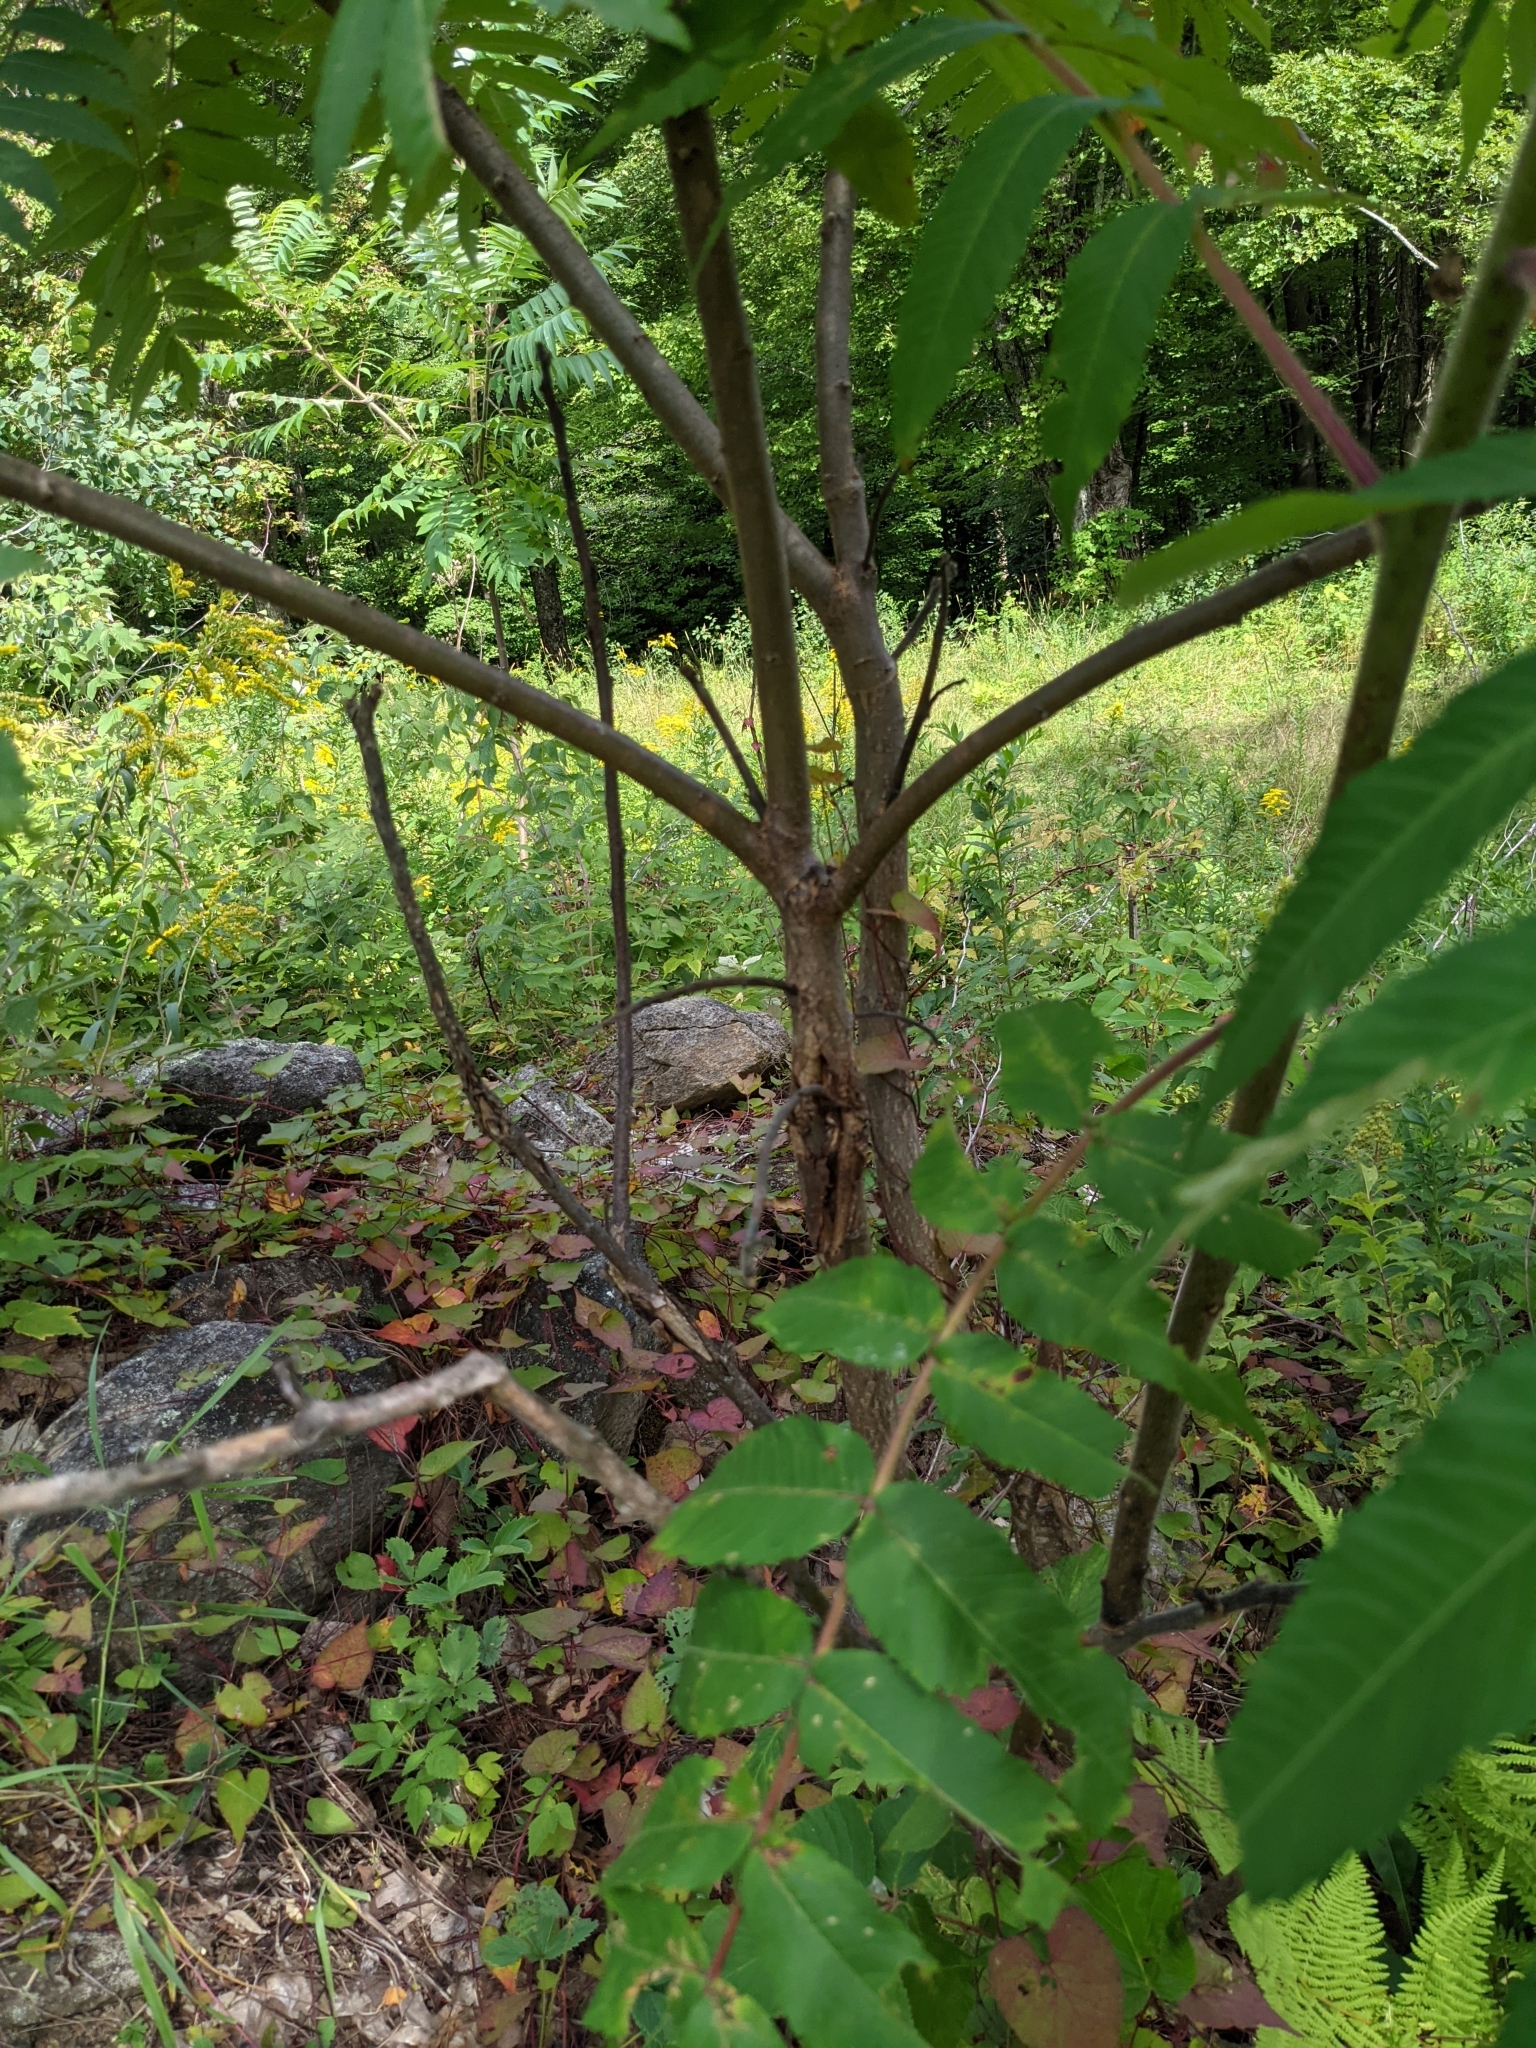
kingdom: Plantae
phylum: Tracheophyta
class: Magnoliopsida
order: Sapindales
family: Anacardiaceae
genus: Rhus
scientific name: Rhus typhina
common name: Staghorn sumac
